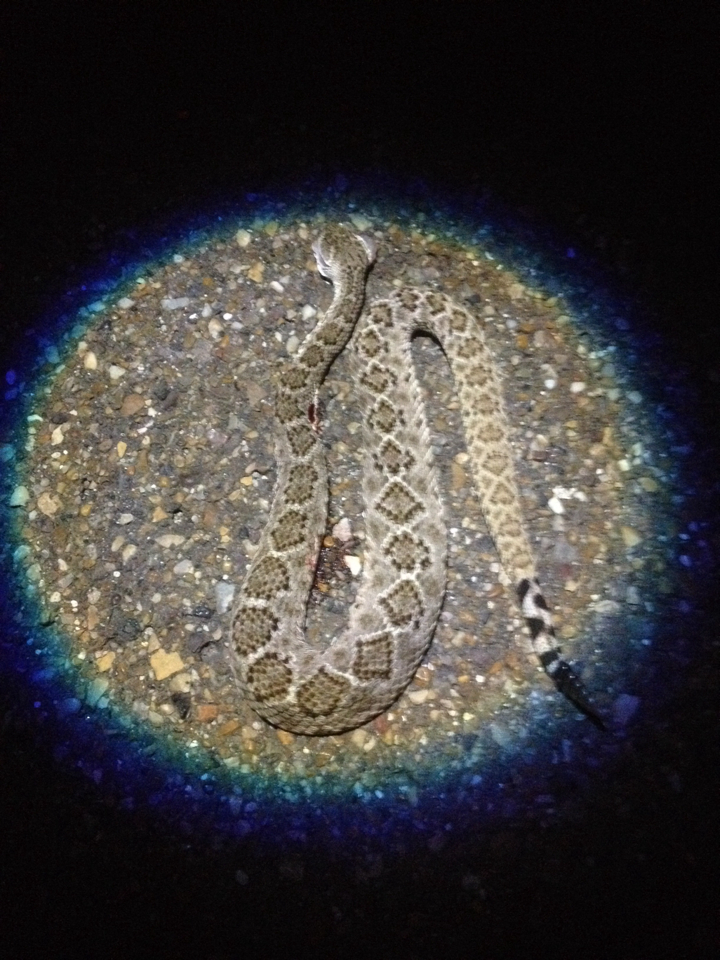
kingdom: Animalia
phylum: Chordata
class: Squamata
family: Viperidae
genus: Crotalus
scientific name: Crotalus atrox
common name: Western diamond-backed rattlesnake
